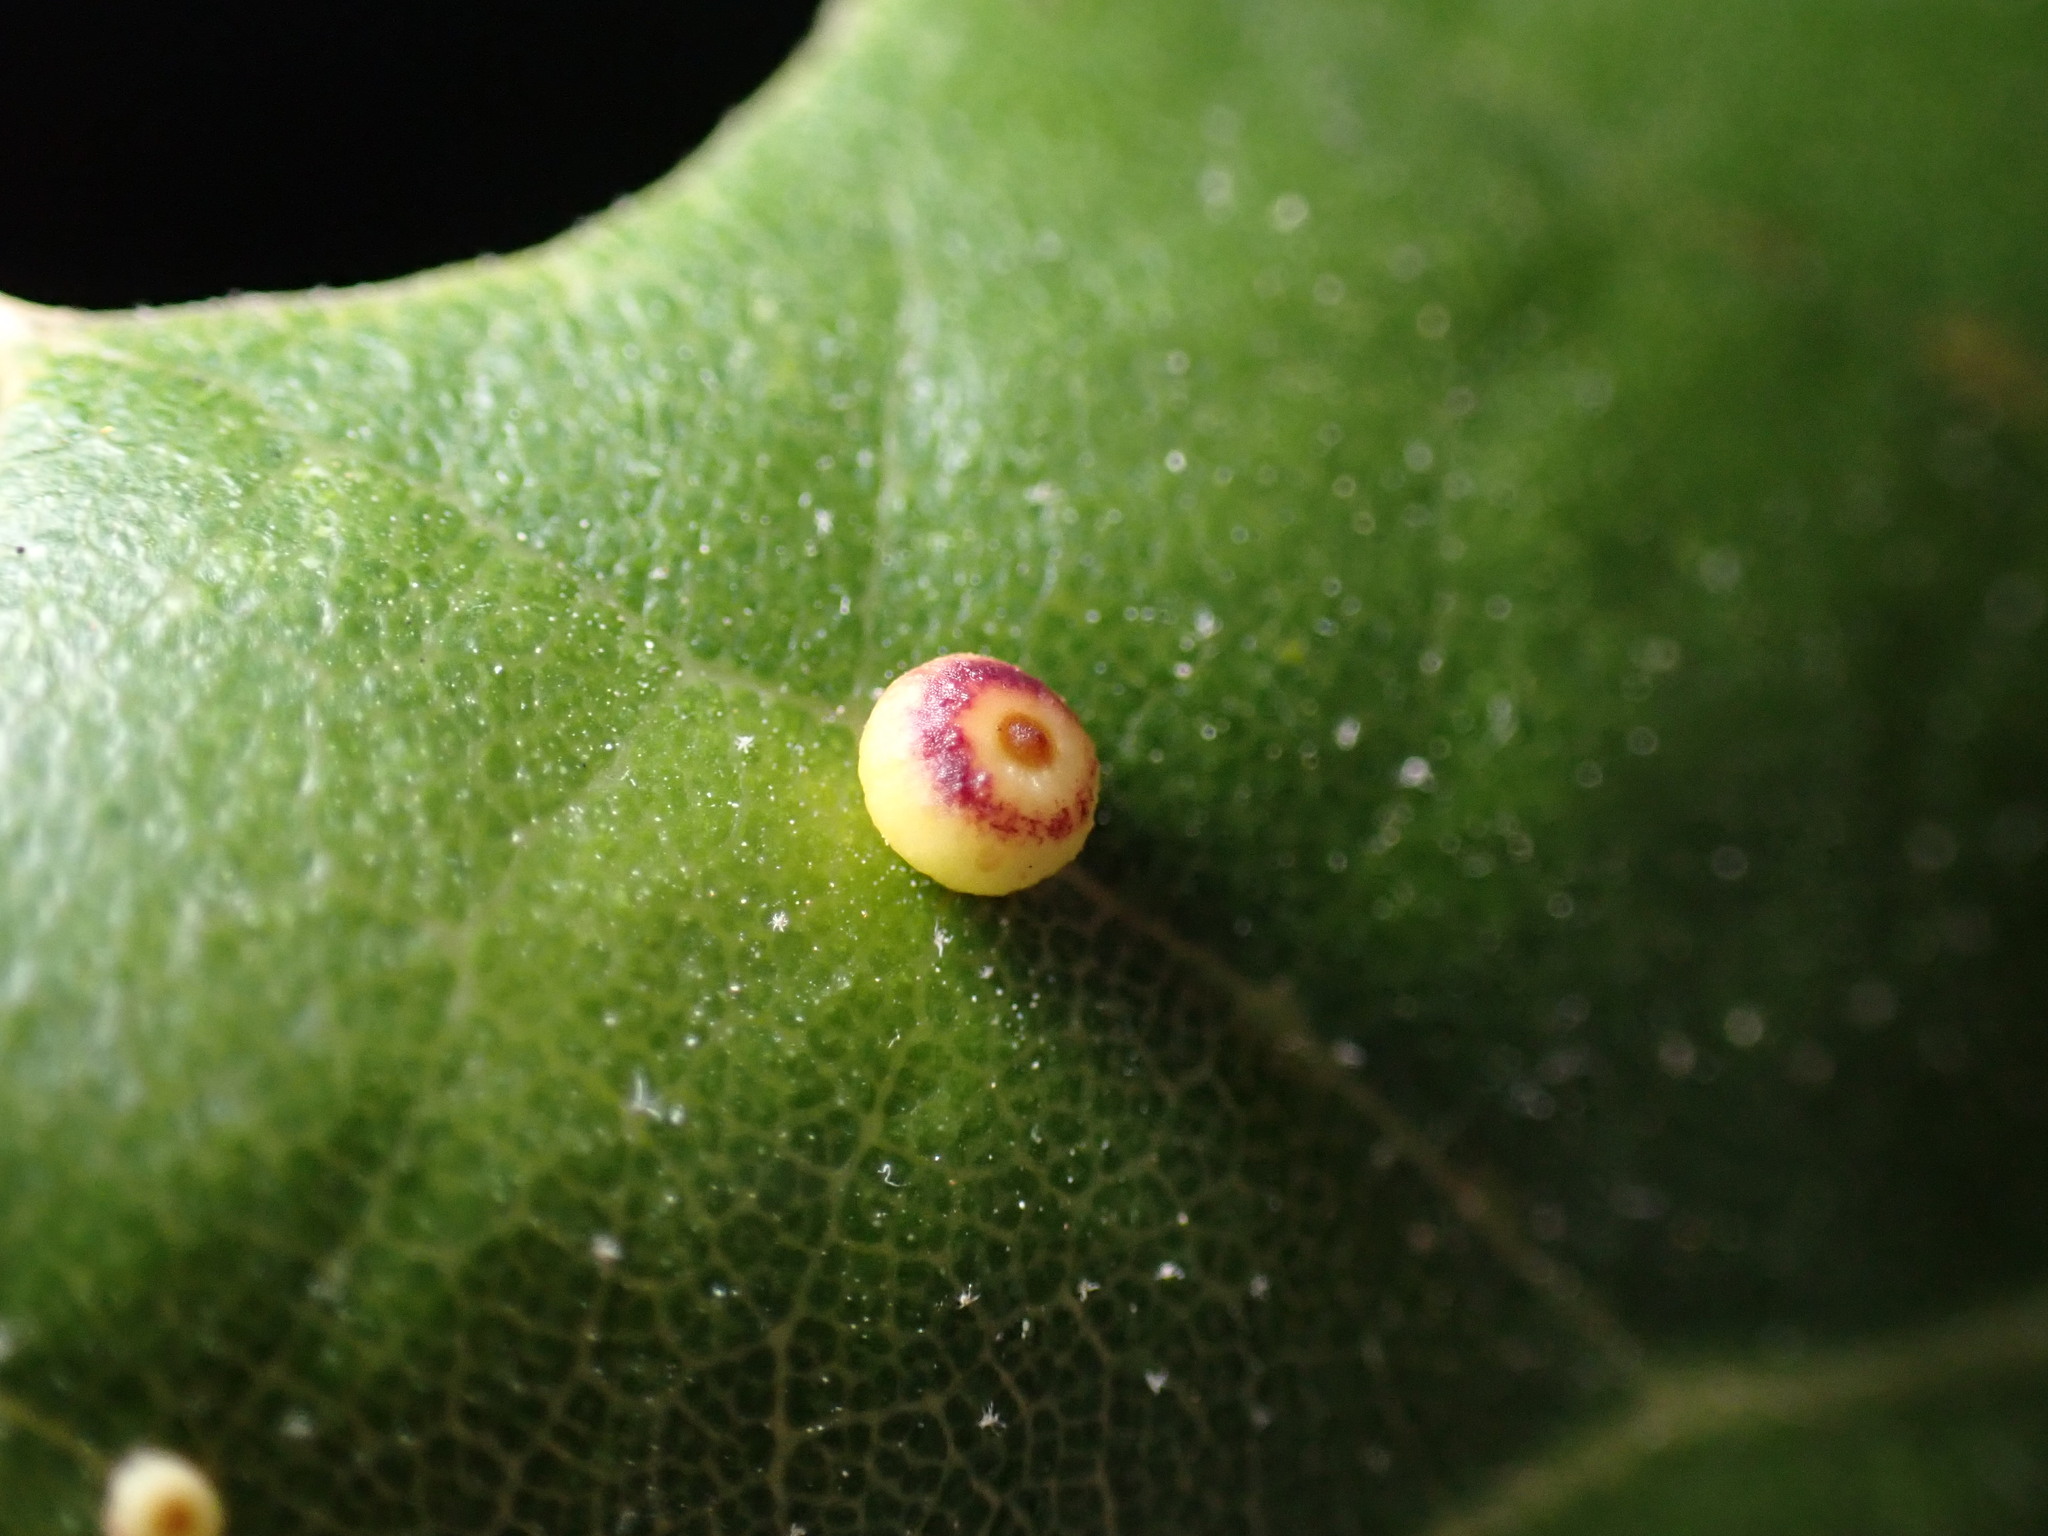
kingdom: Animalia
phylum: Arthropoda
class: Insecta
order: Hymenoptera
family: Cynipidae
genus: Dryocosmus
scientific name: Dryocosmus
